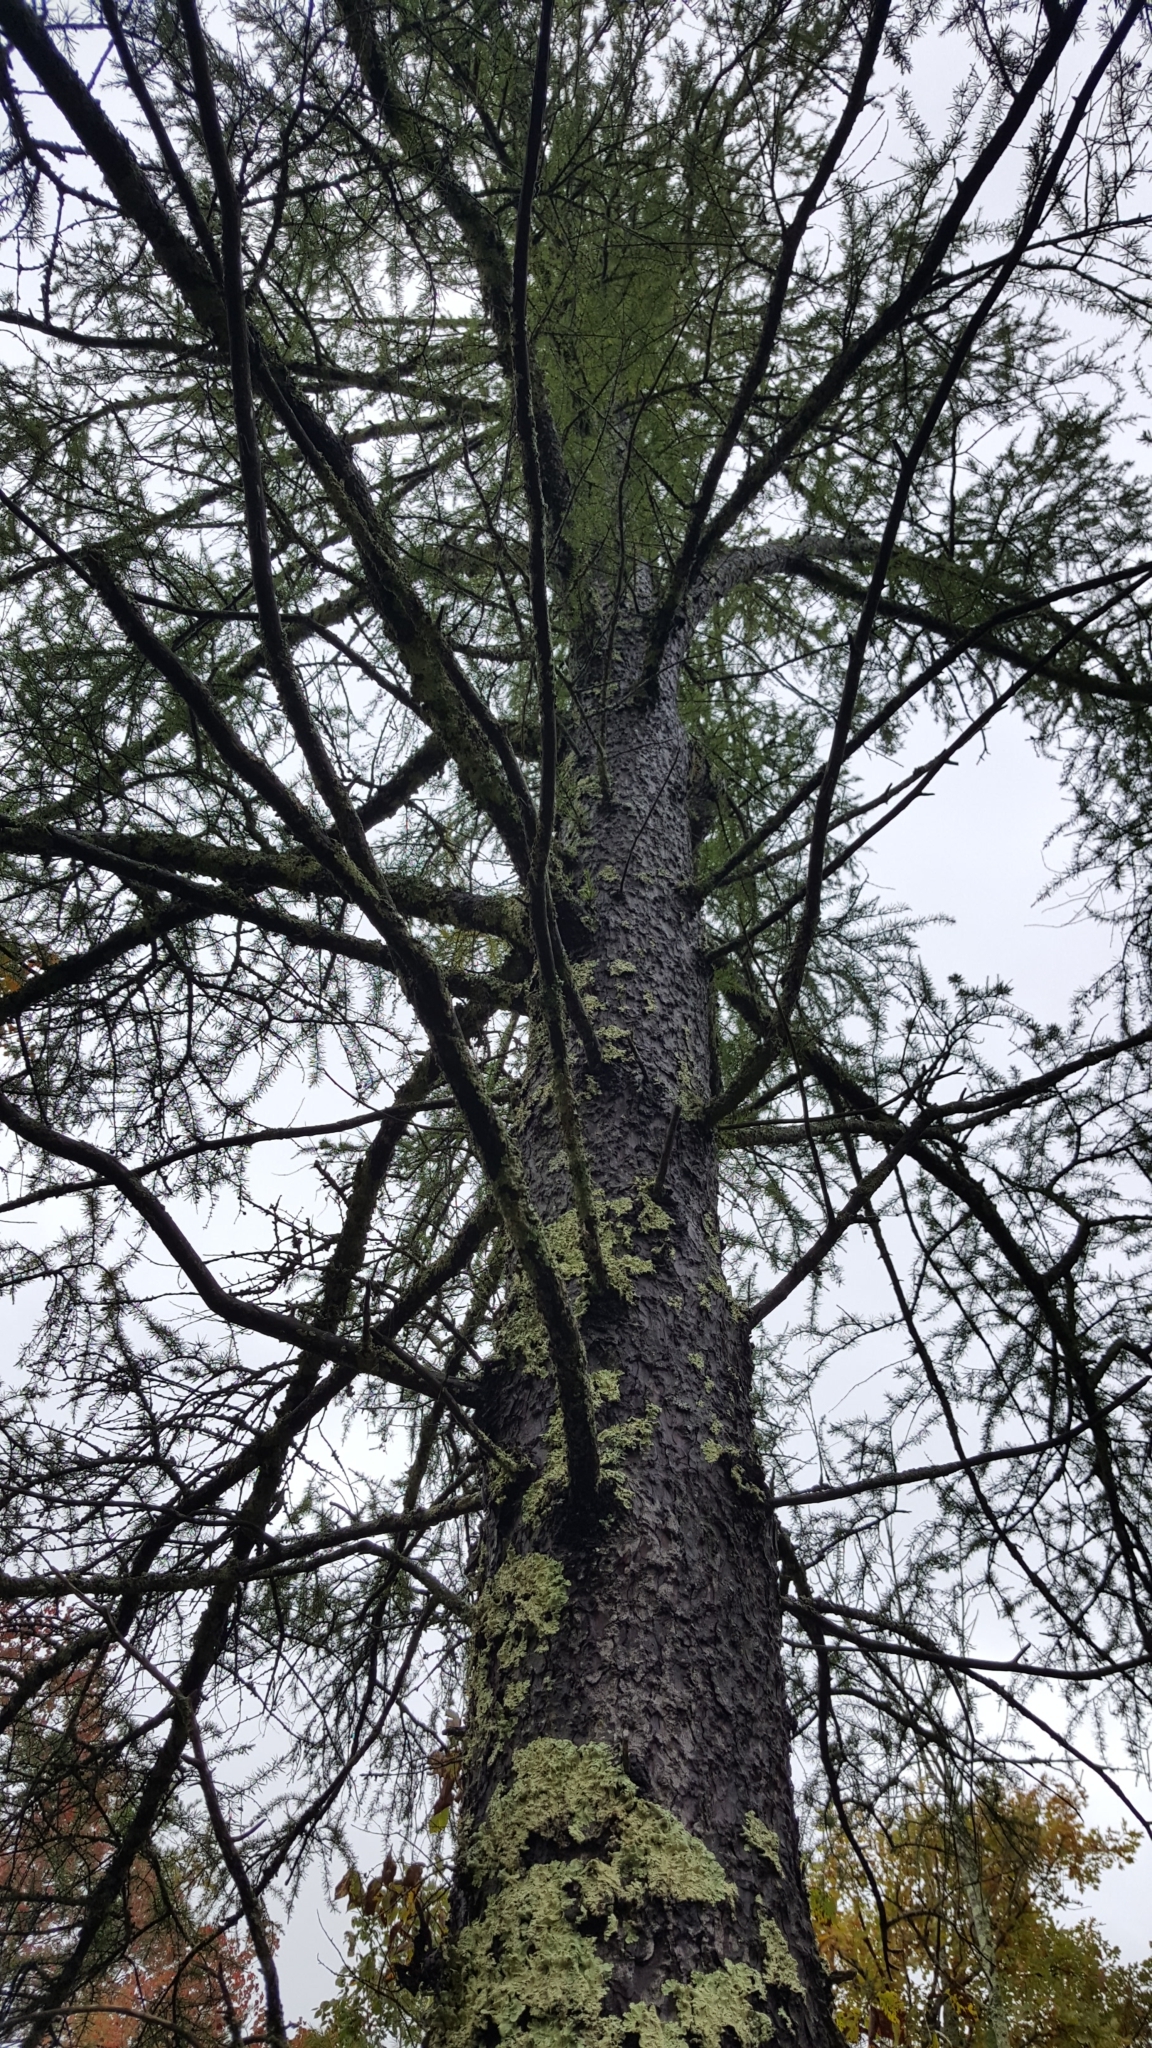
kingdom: Plantae
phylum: Tracheophyta
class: Pinopsida
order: Pinales
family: Pinaceae
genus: Larix
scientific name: Larix laricina
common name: American larch
